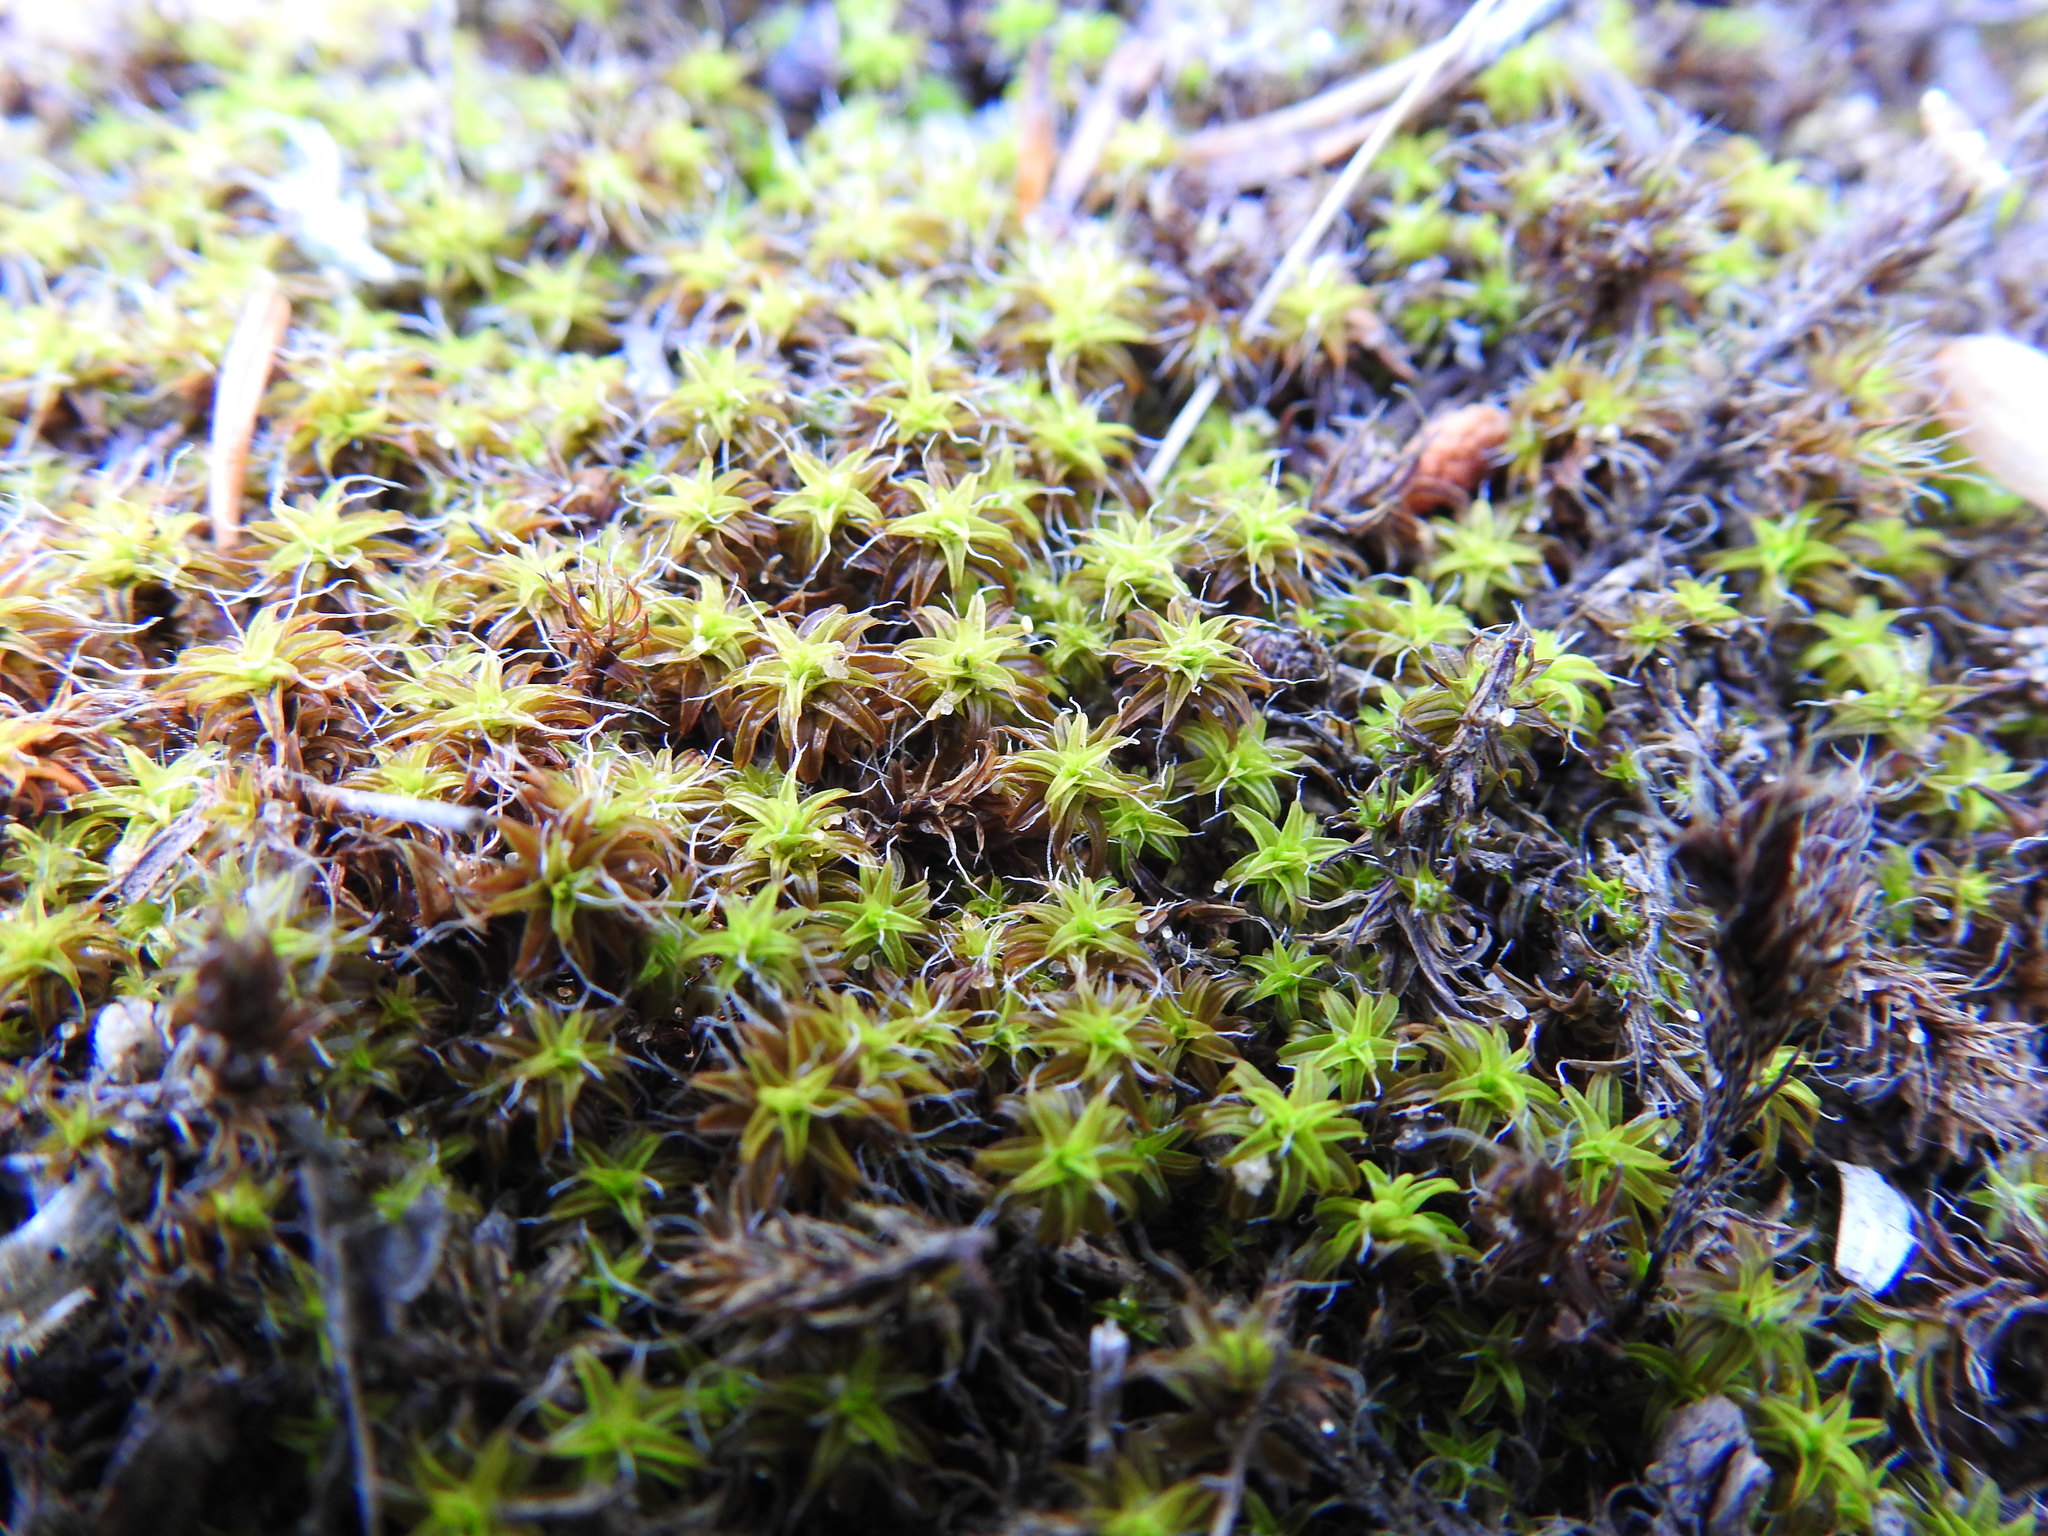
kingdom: Plantae
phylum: Bryophyta
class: Bryopsida
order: Pottiales
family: Pottiaceae
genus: Syntrichia
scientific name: Syntrichia ruralis
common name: Sidewalk screw moss
